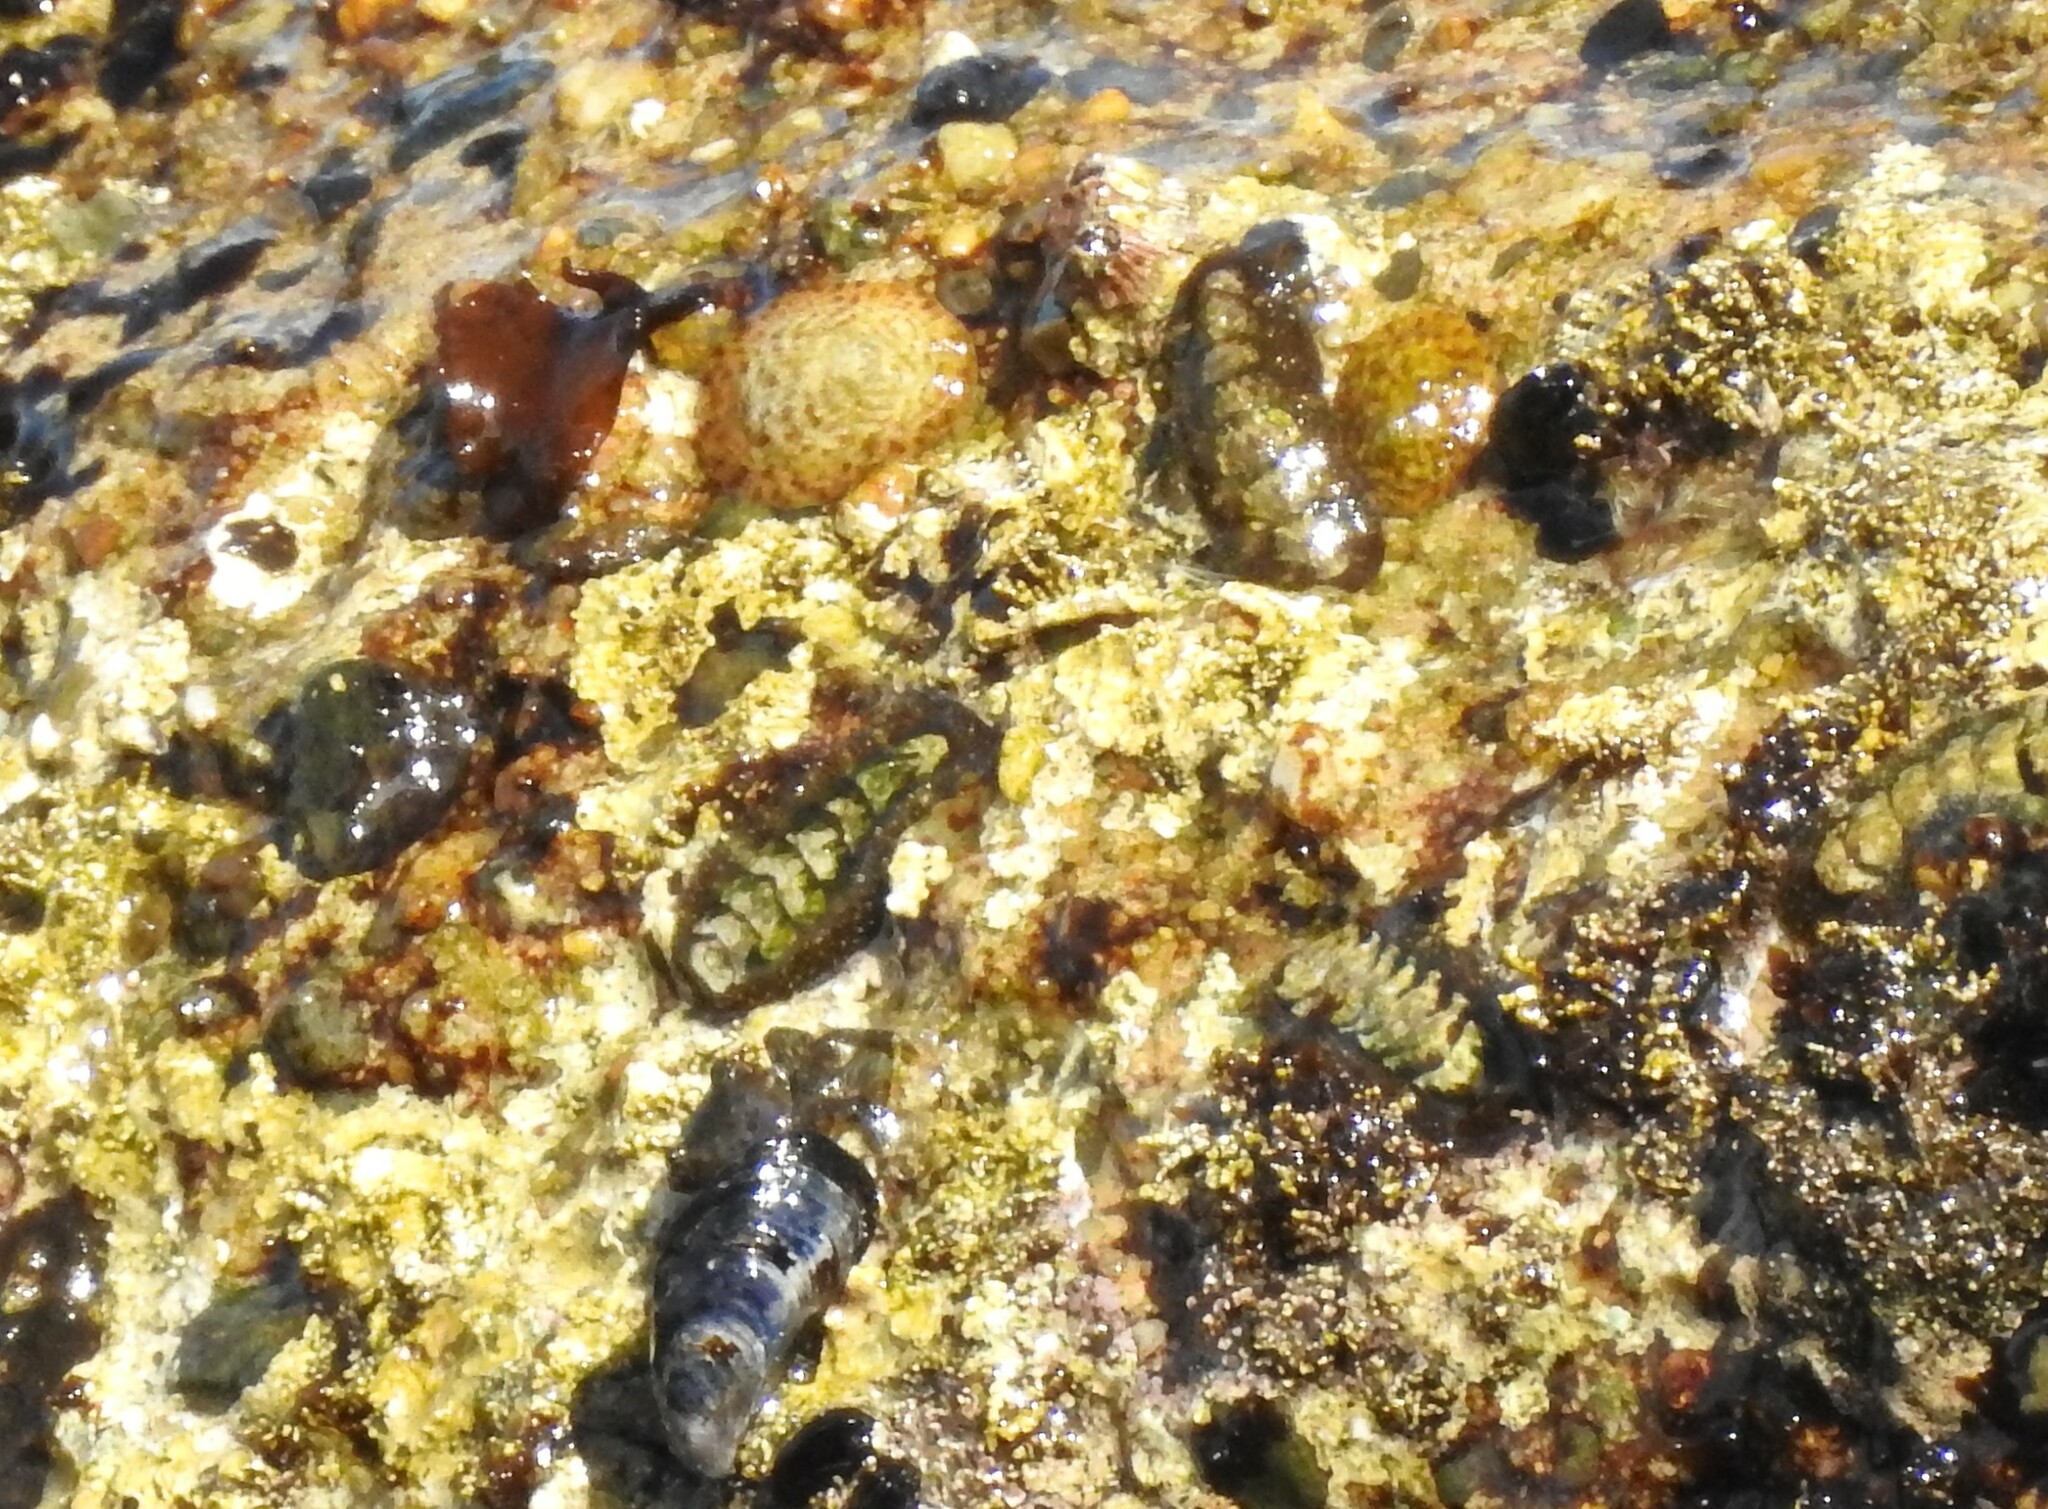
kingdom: Animalia
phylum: Mollusca
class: Polyplacophora
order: Chitonida
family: Tonicellidae
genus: Nuttallina
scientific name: Nuttallina californica
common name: California nuttall chiton
